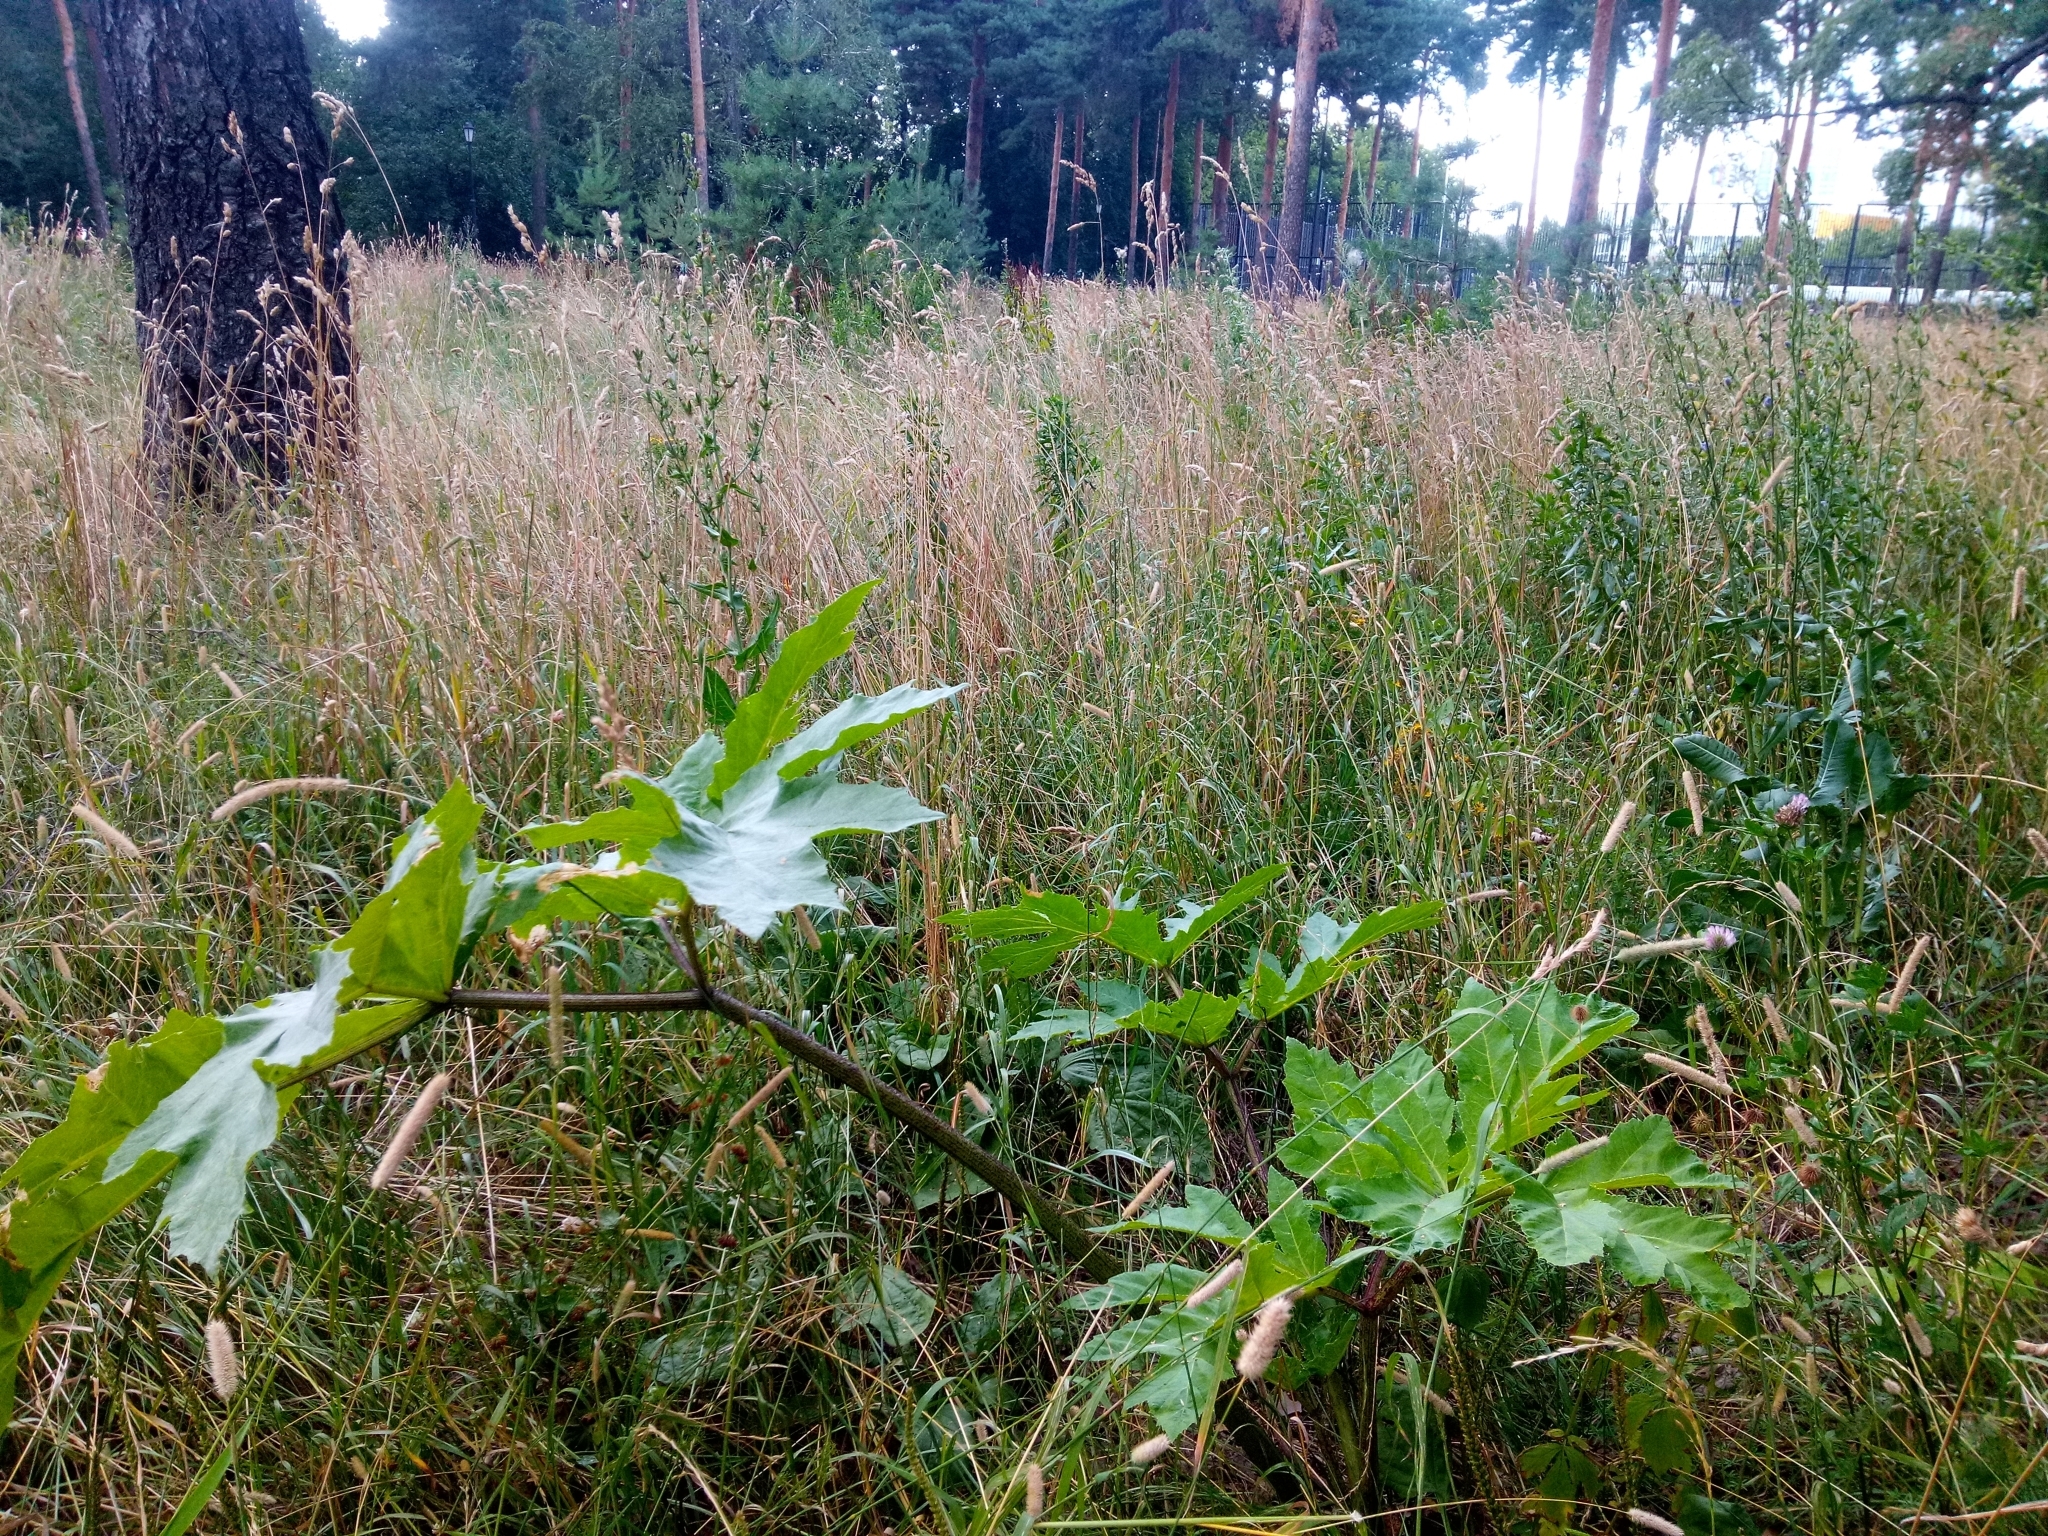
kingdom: Plantae
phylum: Tracheophyta
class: Magnoliopsida
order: Apiales
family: Apiaceae
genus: Heracleum
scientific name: Heracleum sosnowskyi
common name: Sosnowsky's hogweed
